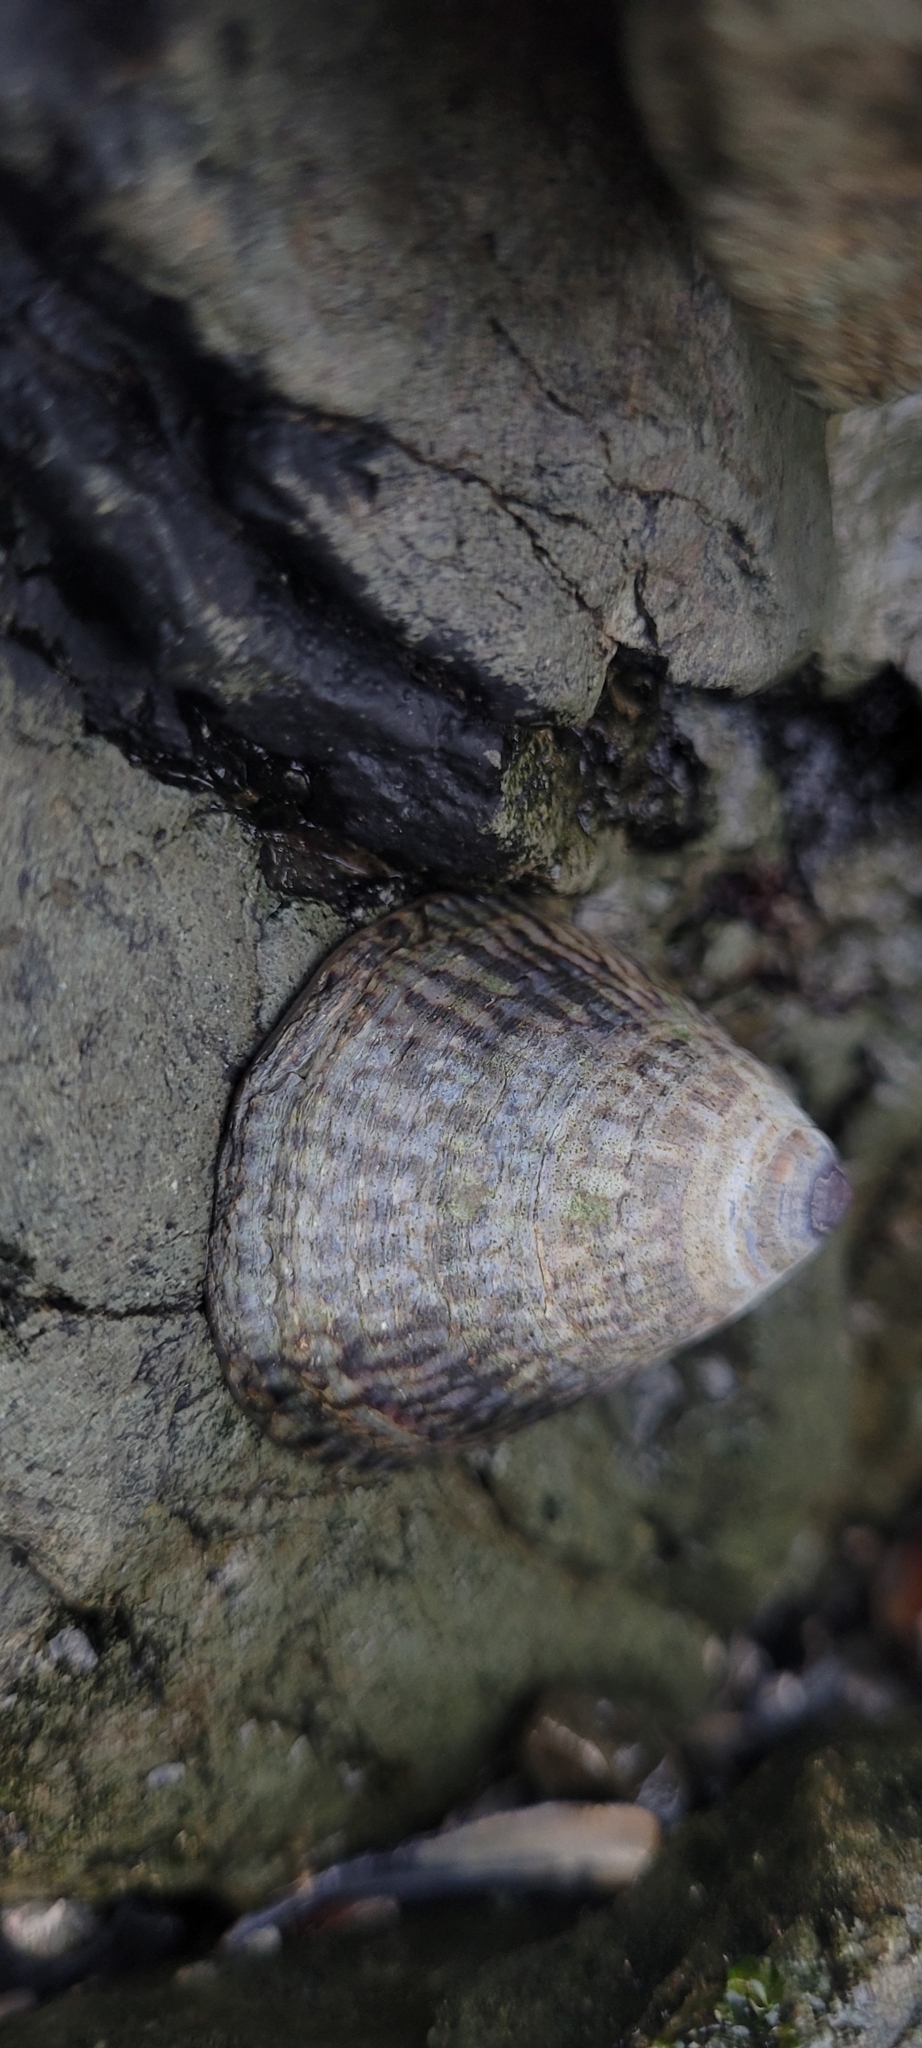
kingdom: Animalia
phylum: Mollusca
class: Gastropoda
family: Lottiidae
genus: Lottia
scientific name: Lottia persona
